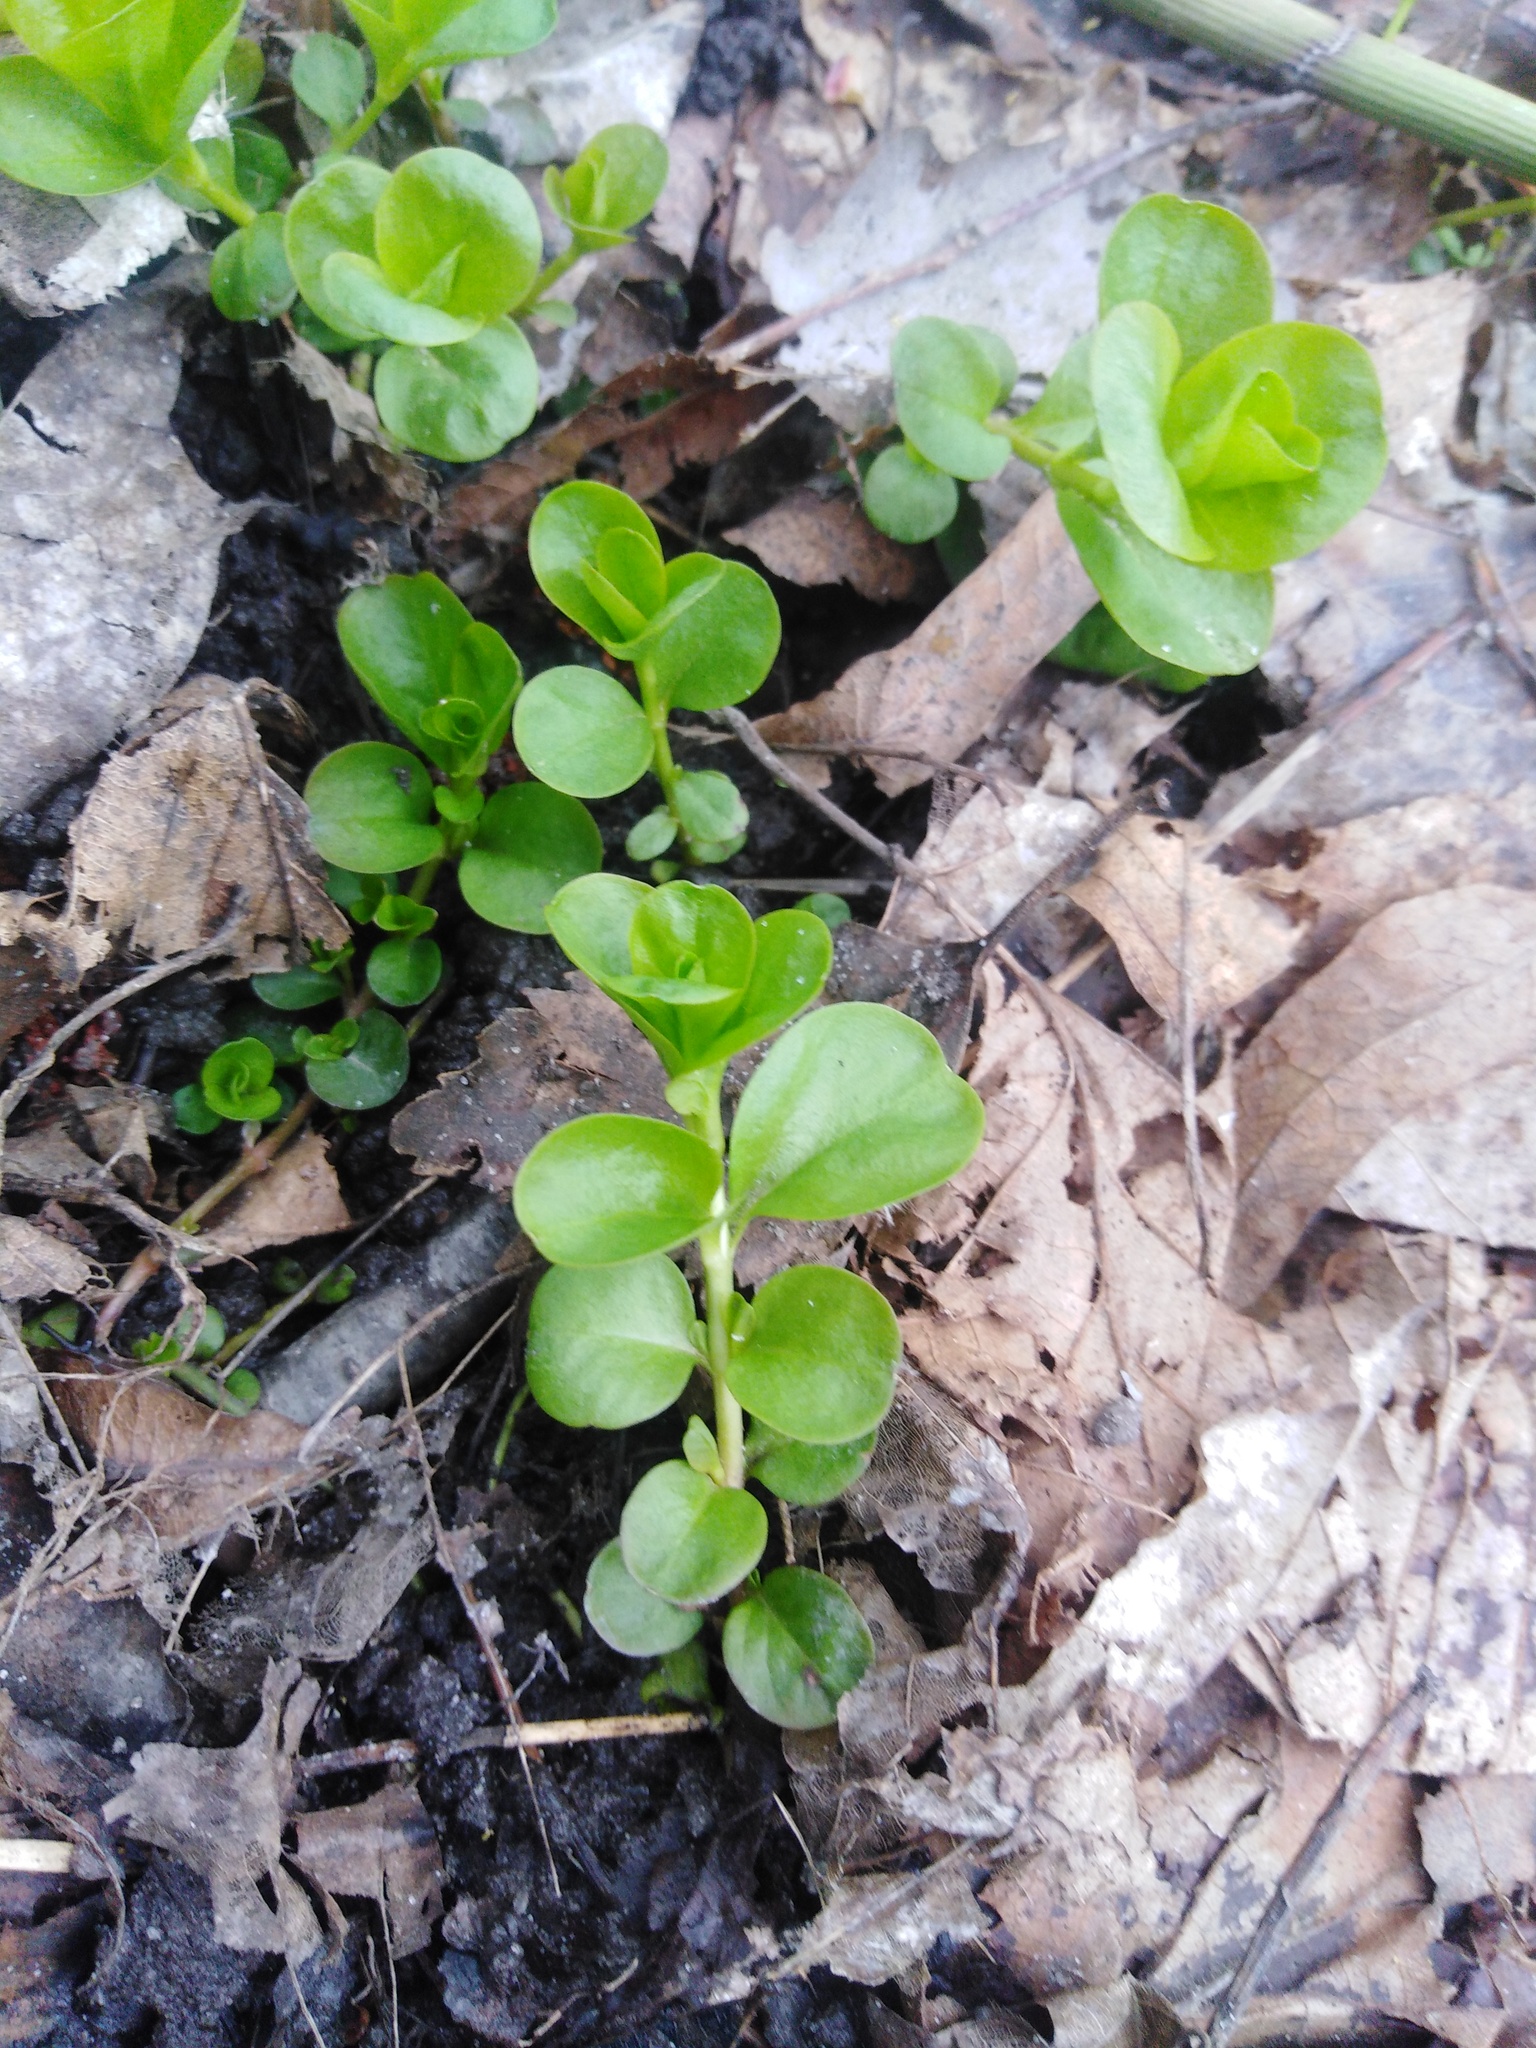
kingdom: Plantae
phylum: Tracheophyta
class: Magnoliopsida
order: Ericales
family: Primulaceae
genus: Lysimachia
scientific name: Lysimachia nummularia
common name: Moneywort
